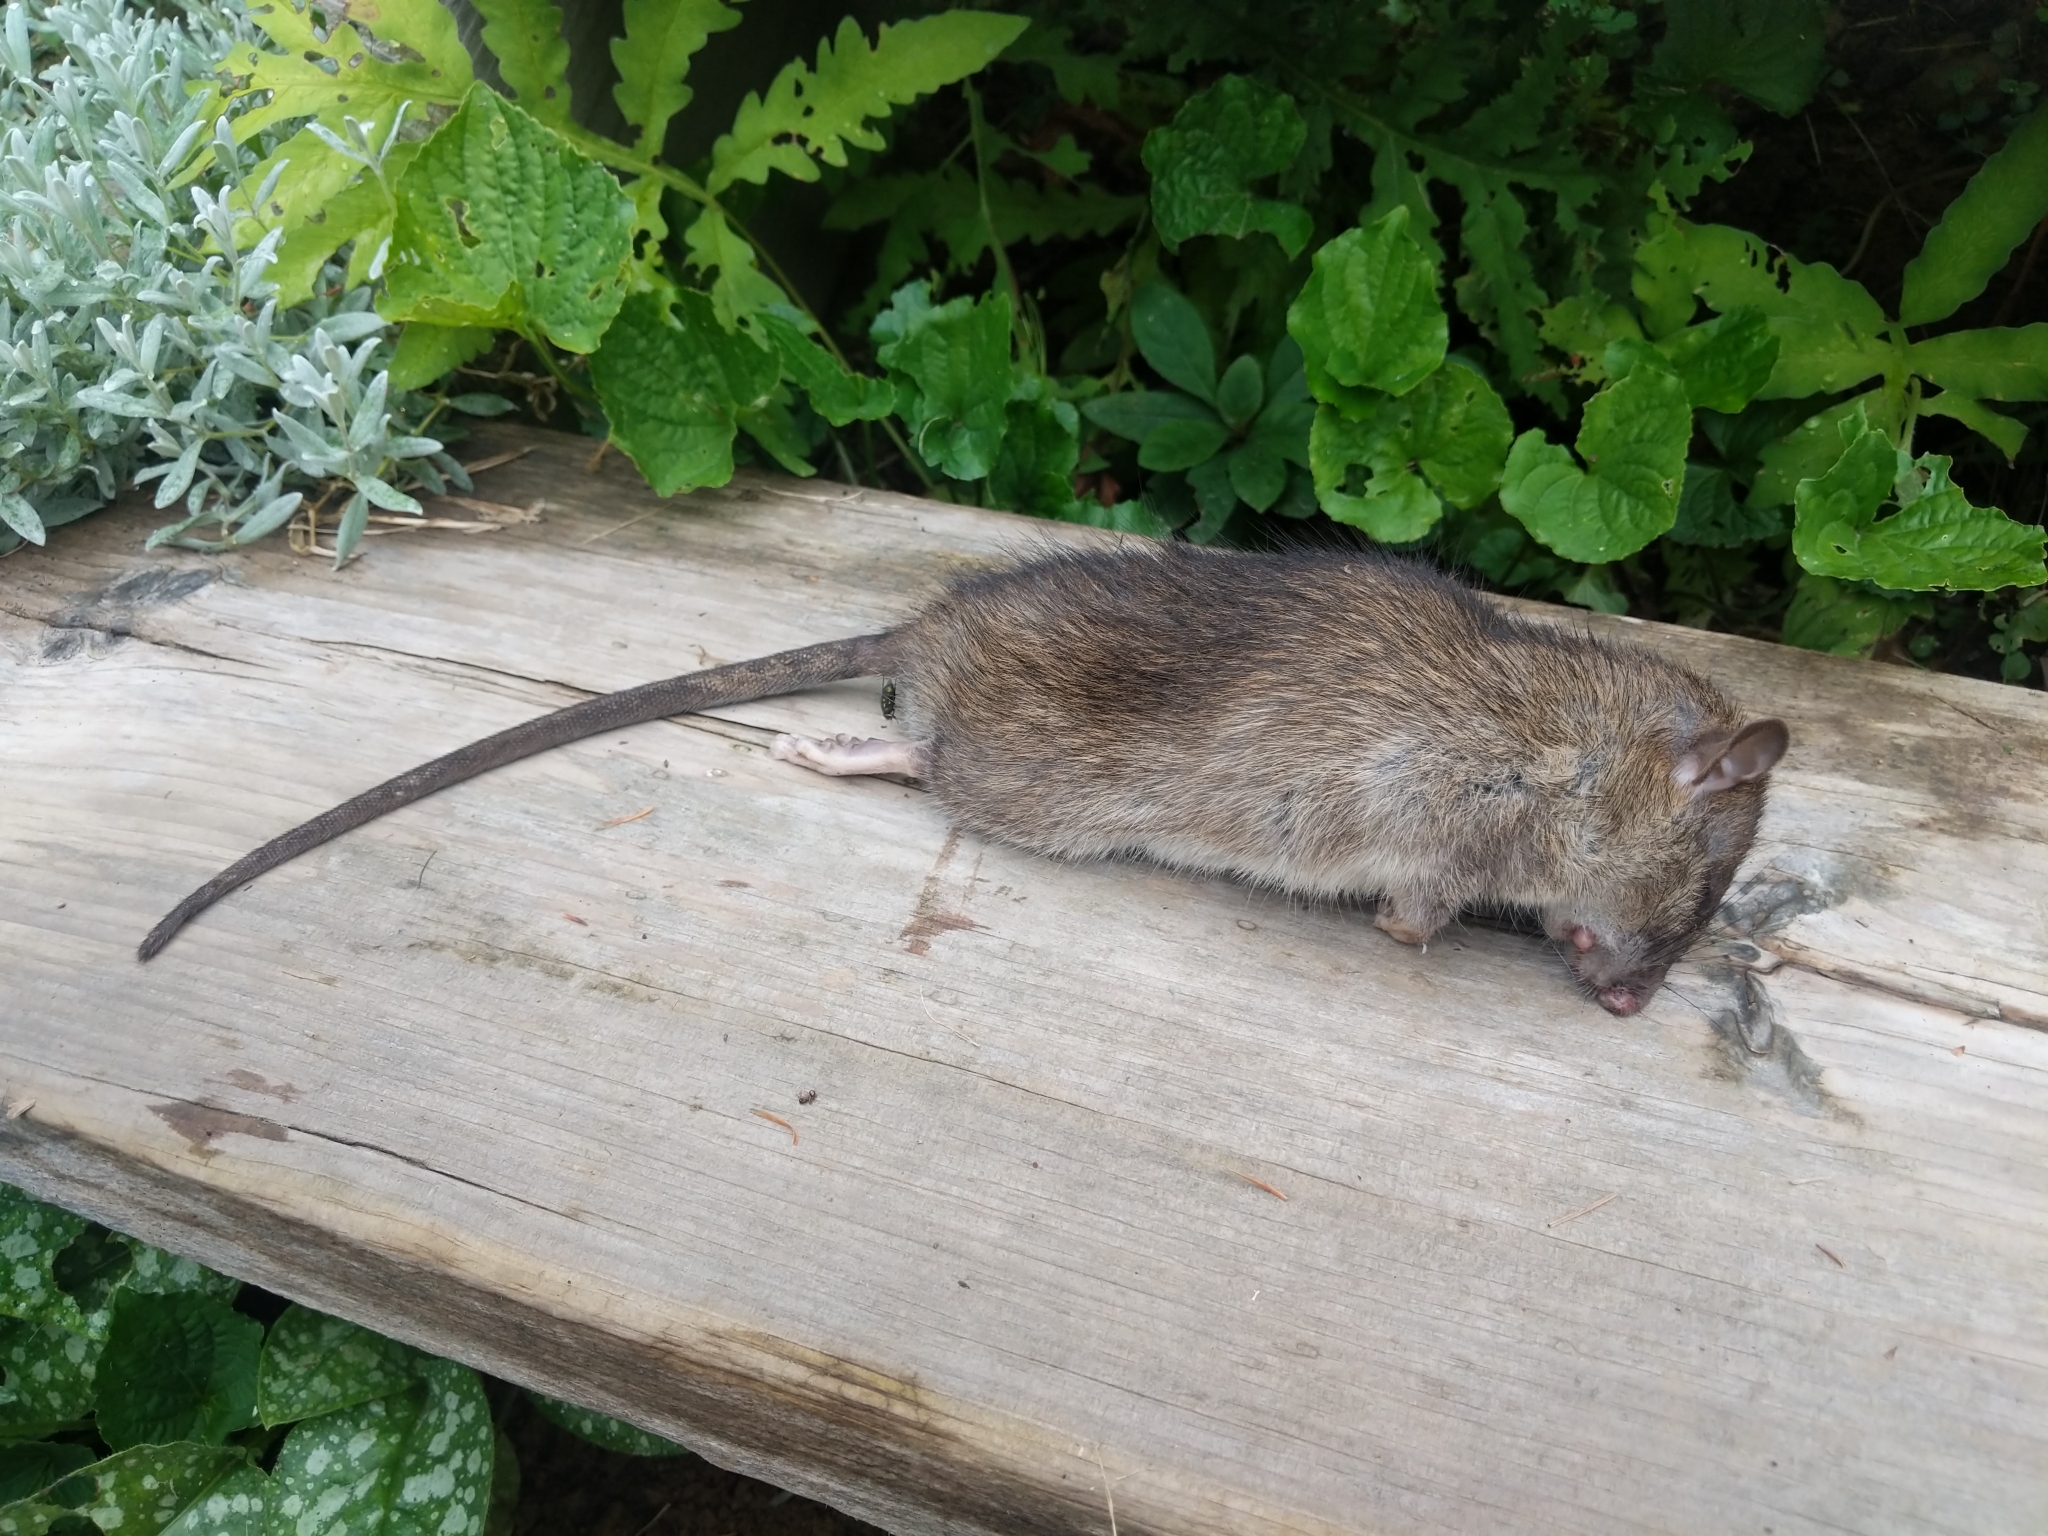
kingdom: Animalia
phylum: Chordata
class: Mammalia
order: Rodentia
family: Muridae
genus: Rattus
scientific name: Rattus norvegicus
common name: Brown rat
